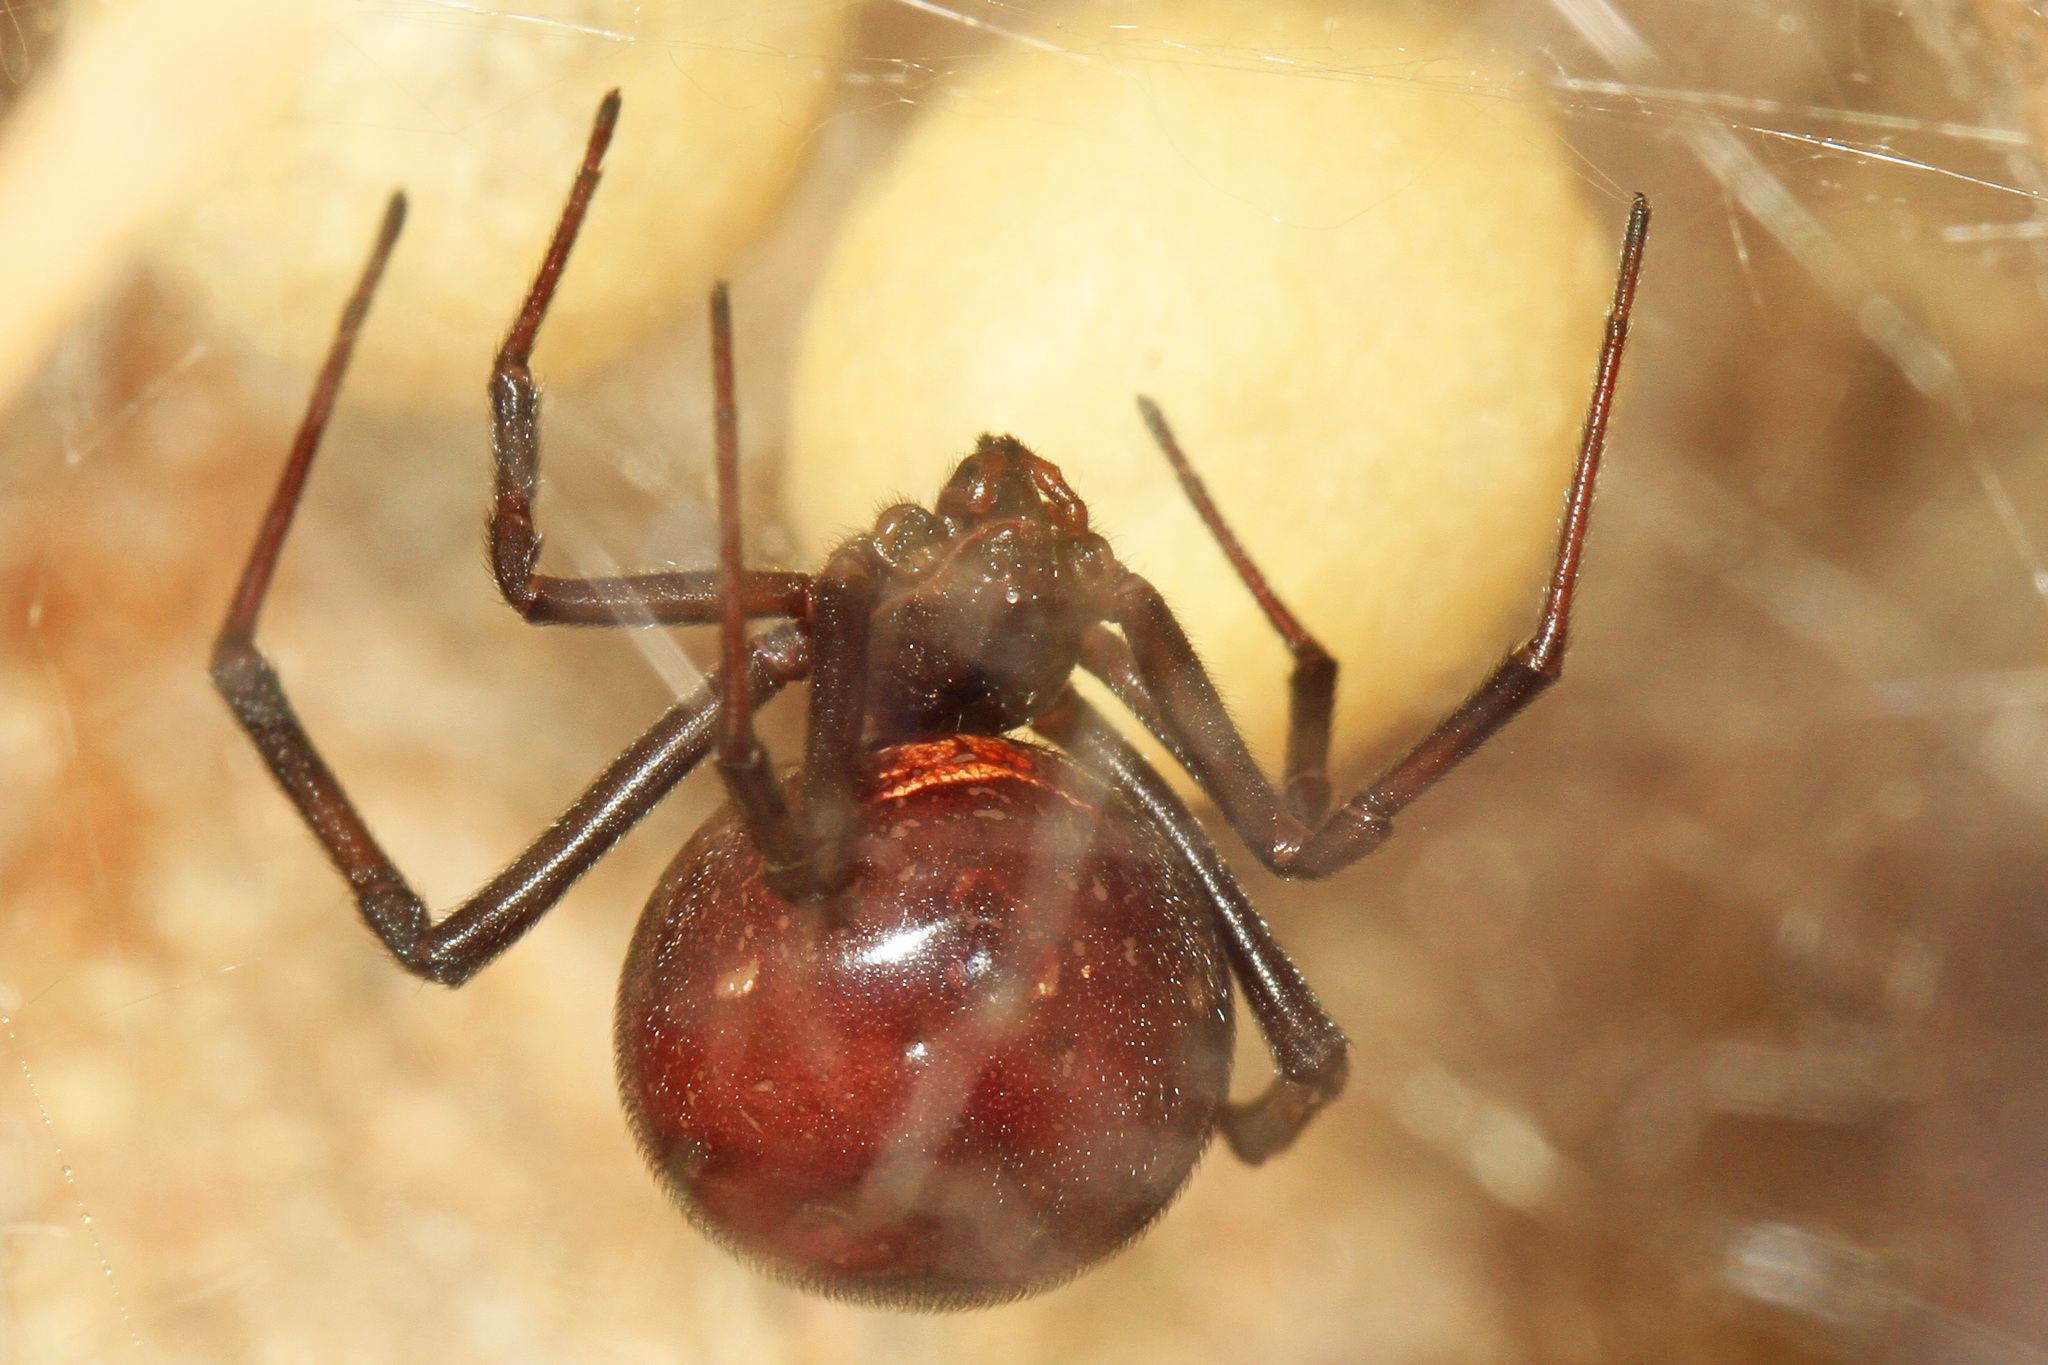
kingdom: Animalia
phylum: Arthropoda
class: Arachnida
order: Araneae
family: Theridiidae
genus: Latrodectus
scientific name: Latrodectus hesperus
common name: Western black widow
